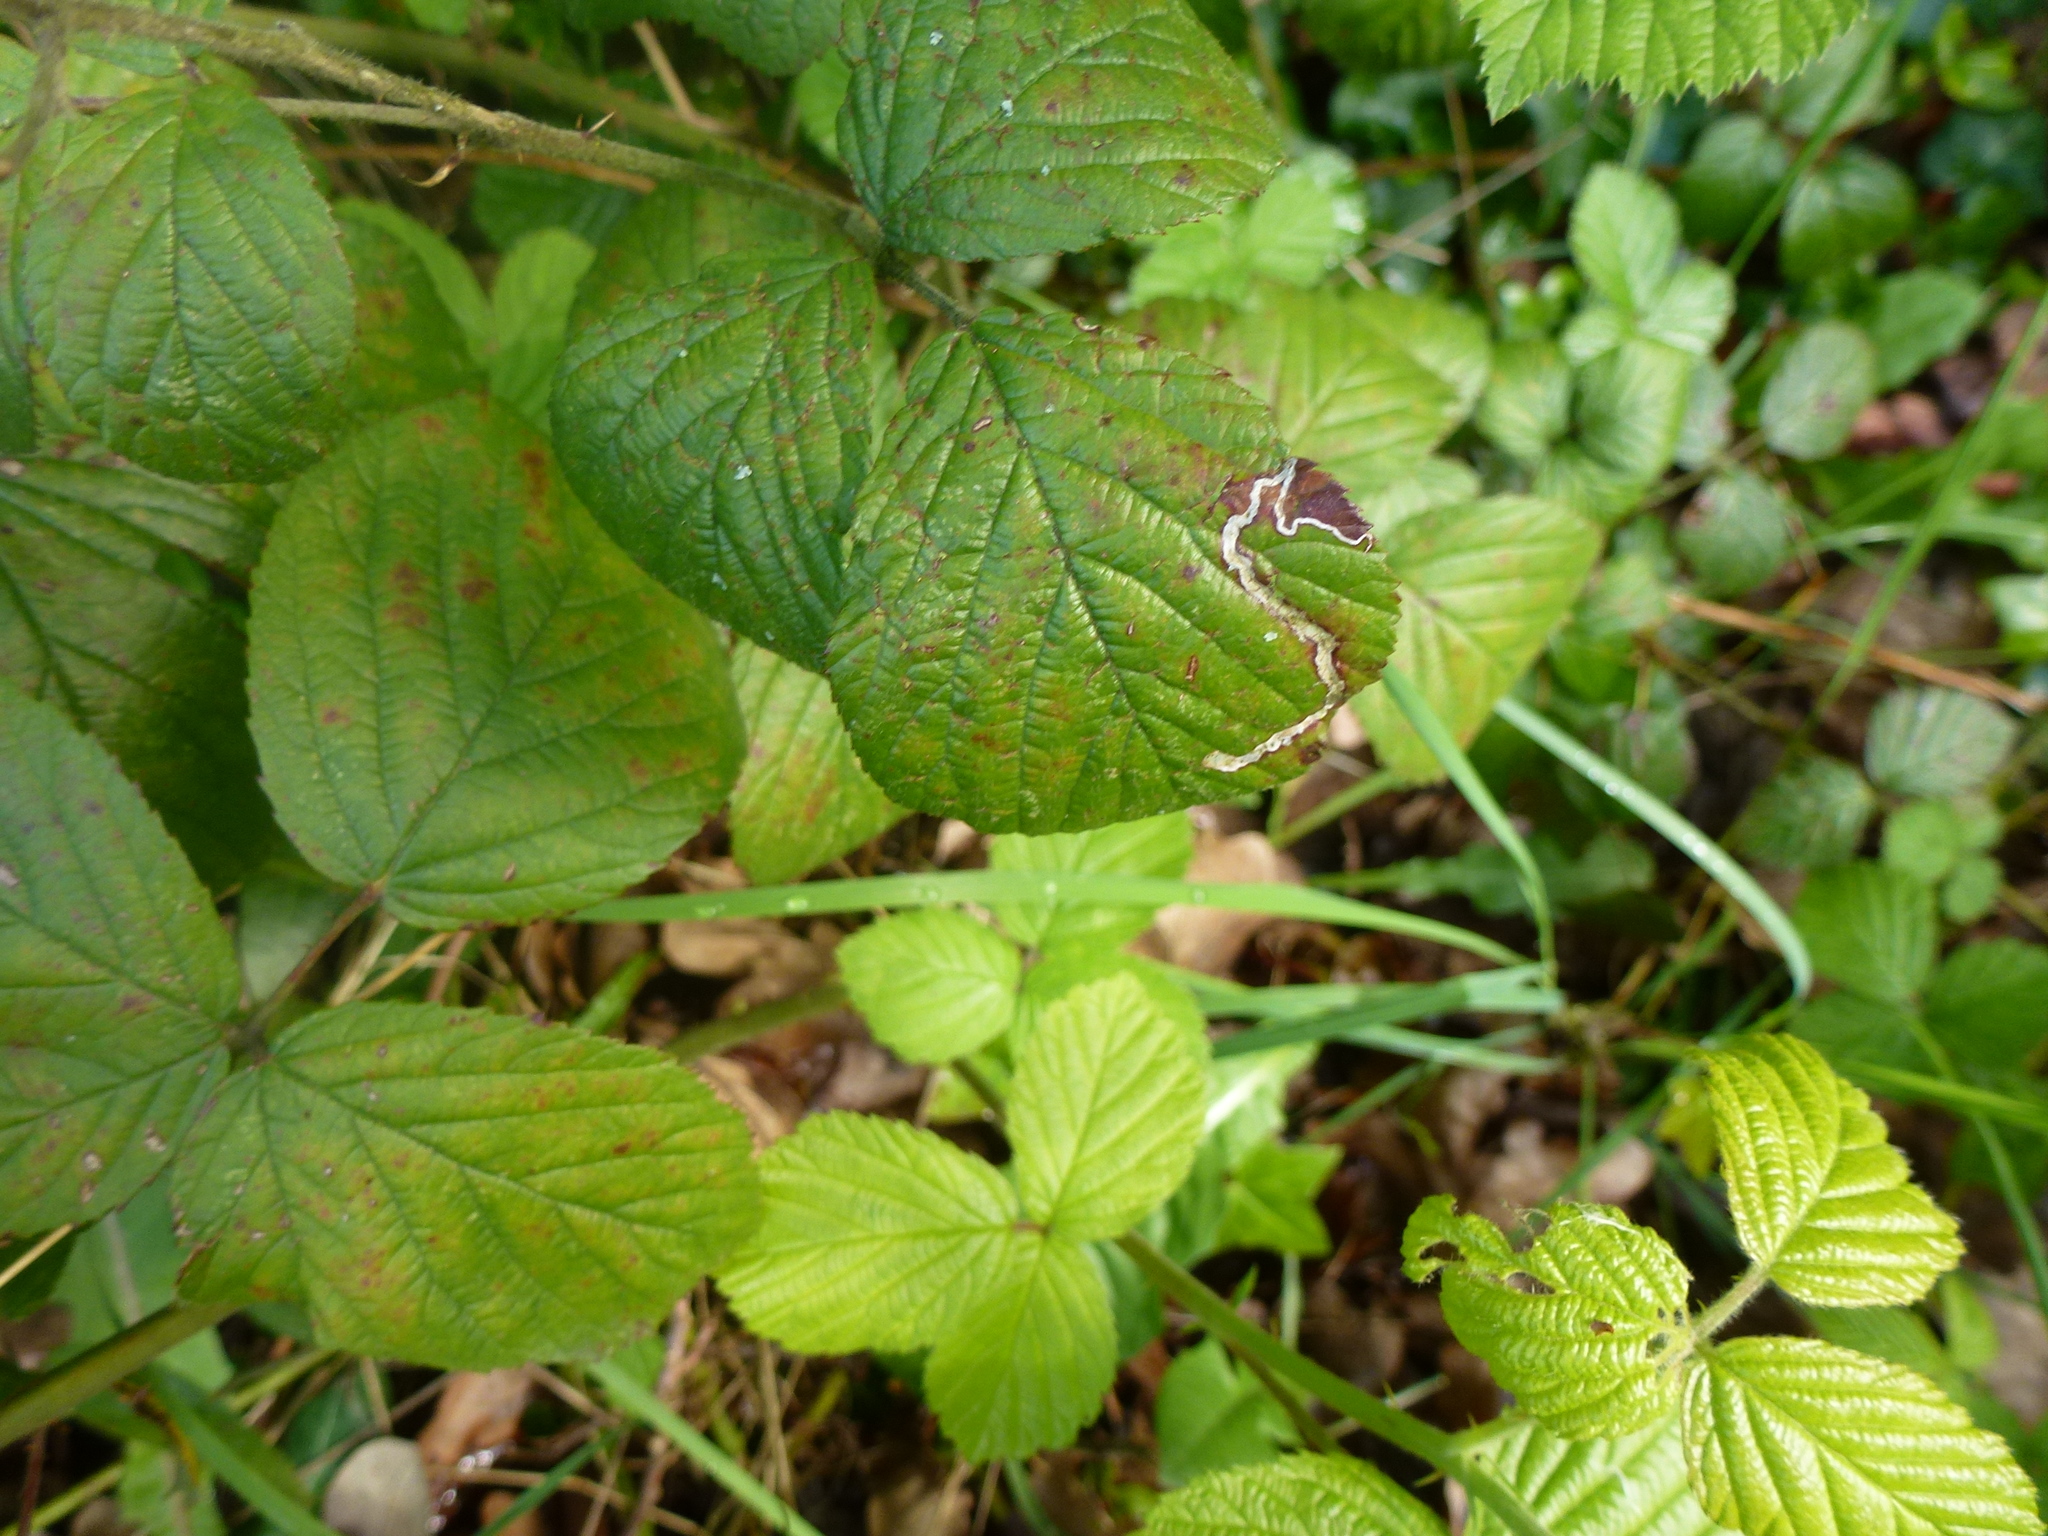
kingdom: Animalia
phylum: Arthropoda
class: Insecta
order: Lepidoptera
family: Nepticulidae
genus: Stigmella
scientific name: Stigmella aurella
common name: Golden pigmy
